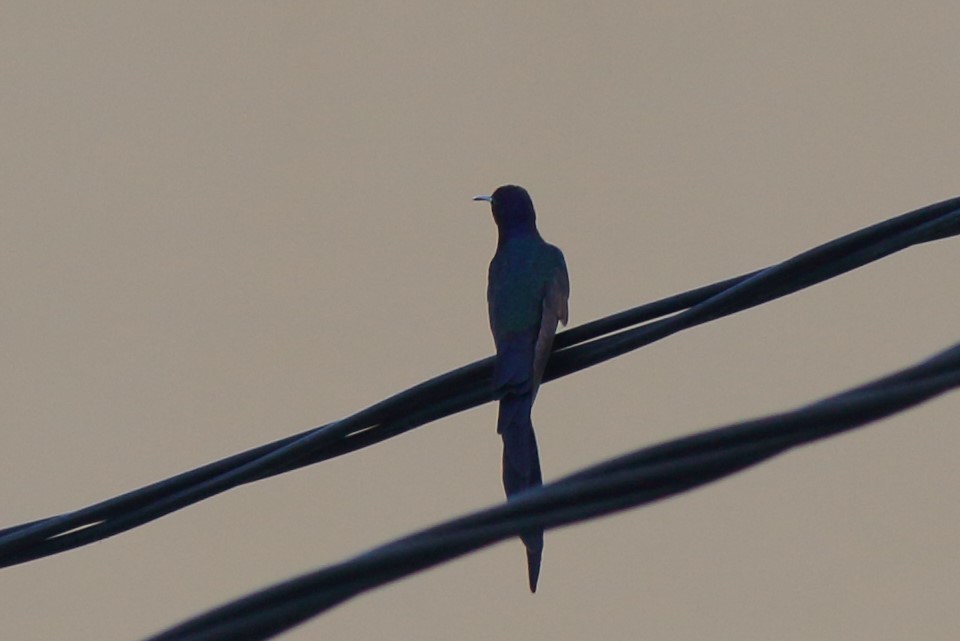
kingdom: Animalia
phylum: Chordata
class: Aves
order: Apodiformes
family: Trochilidae
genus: Eupetomena
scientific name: Eupetomena macroura
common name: Swallow-tailed hummingbird
